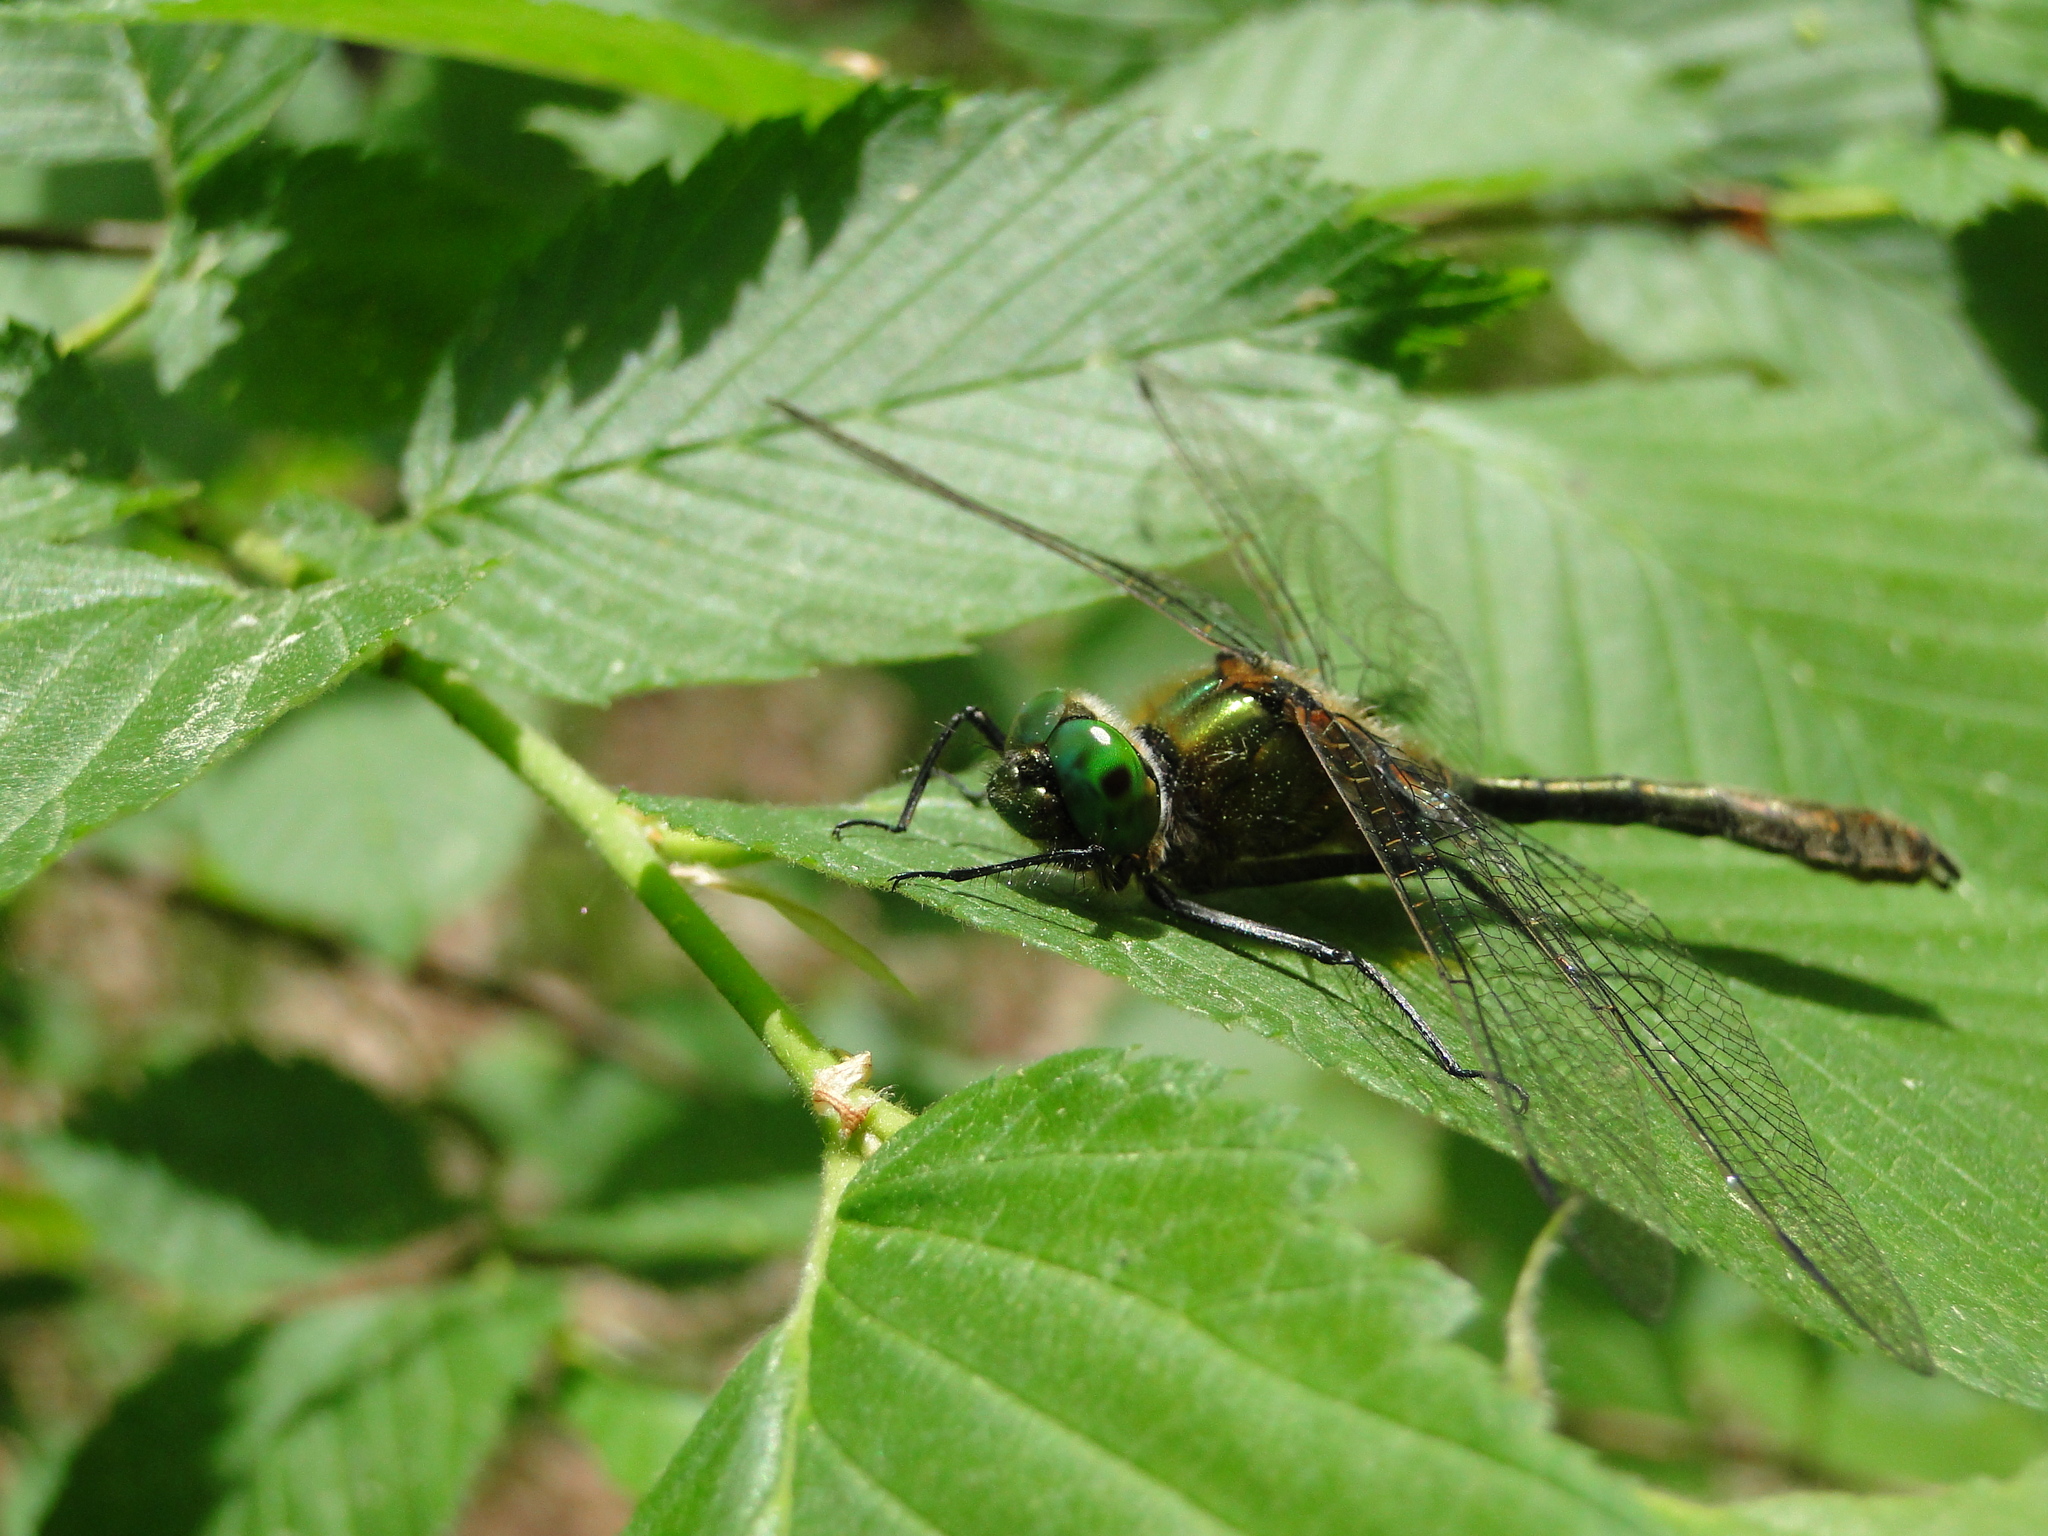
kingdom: Animalia
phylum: Arthropoda
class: Insecta
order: Odonata
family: Corduliidae
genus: Cordulia
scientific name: Cordulia aenea
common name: Downy emerald
